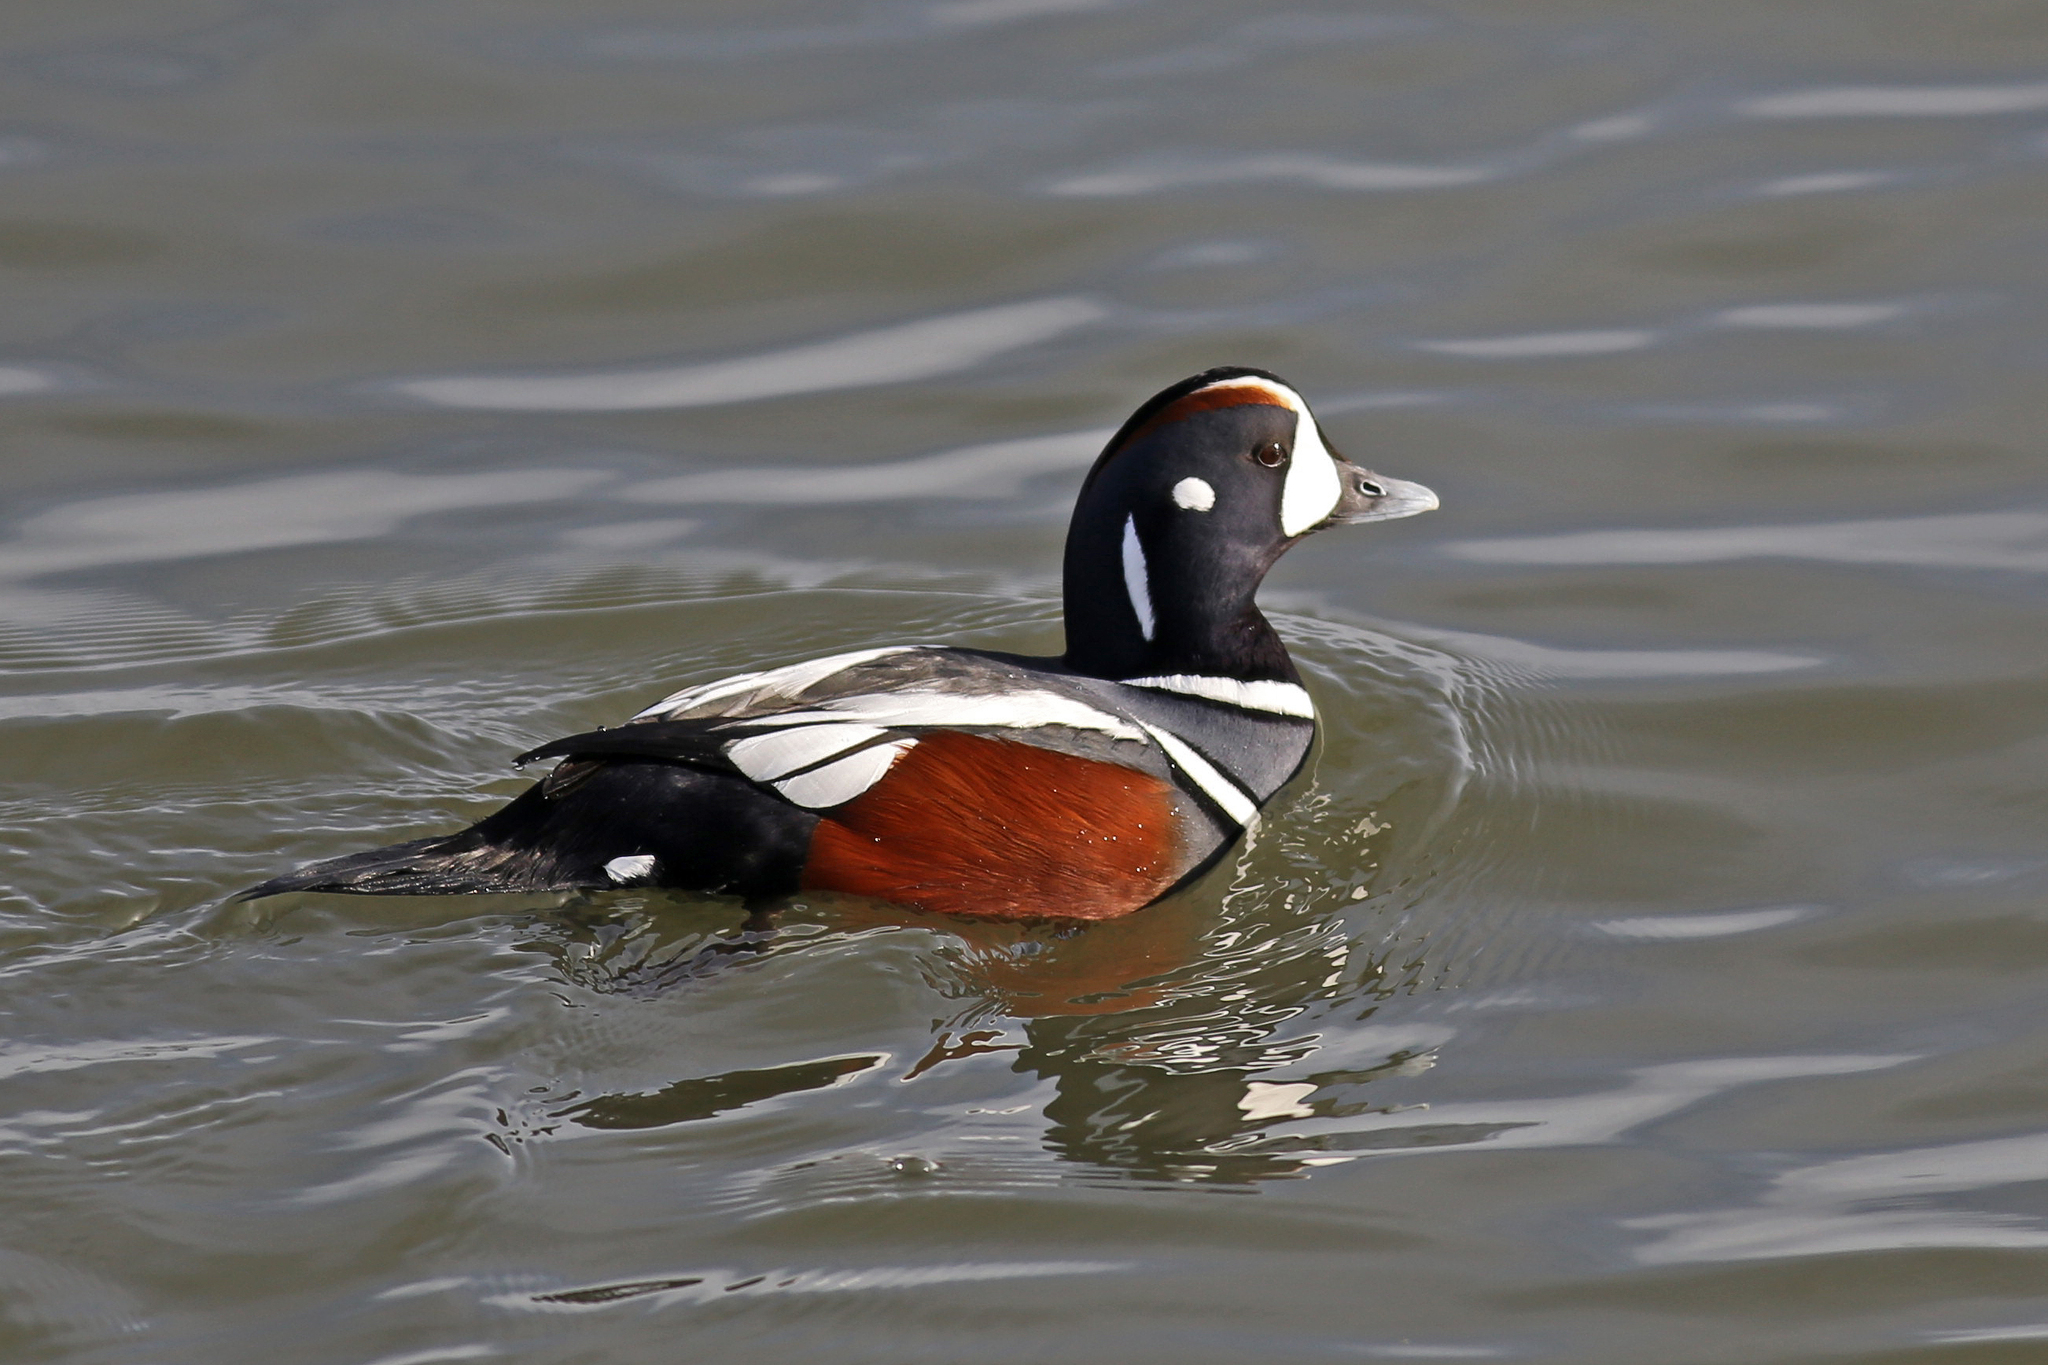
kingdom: Animalia
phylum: Chordata
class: Aves
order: Anseriformes
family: Anatidae
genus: Histrionicus
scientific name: Histrionicus histrionicus
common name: Harlequin duck
